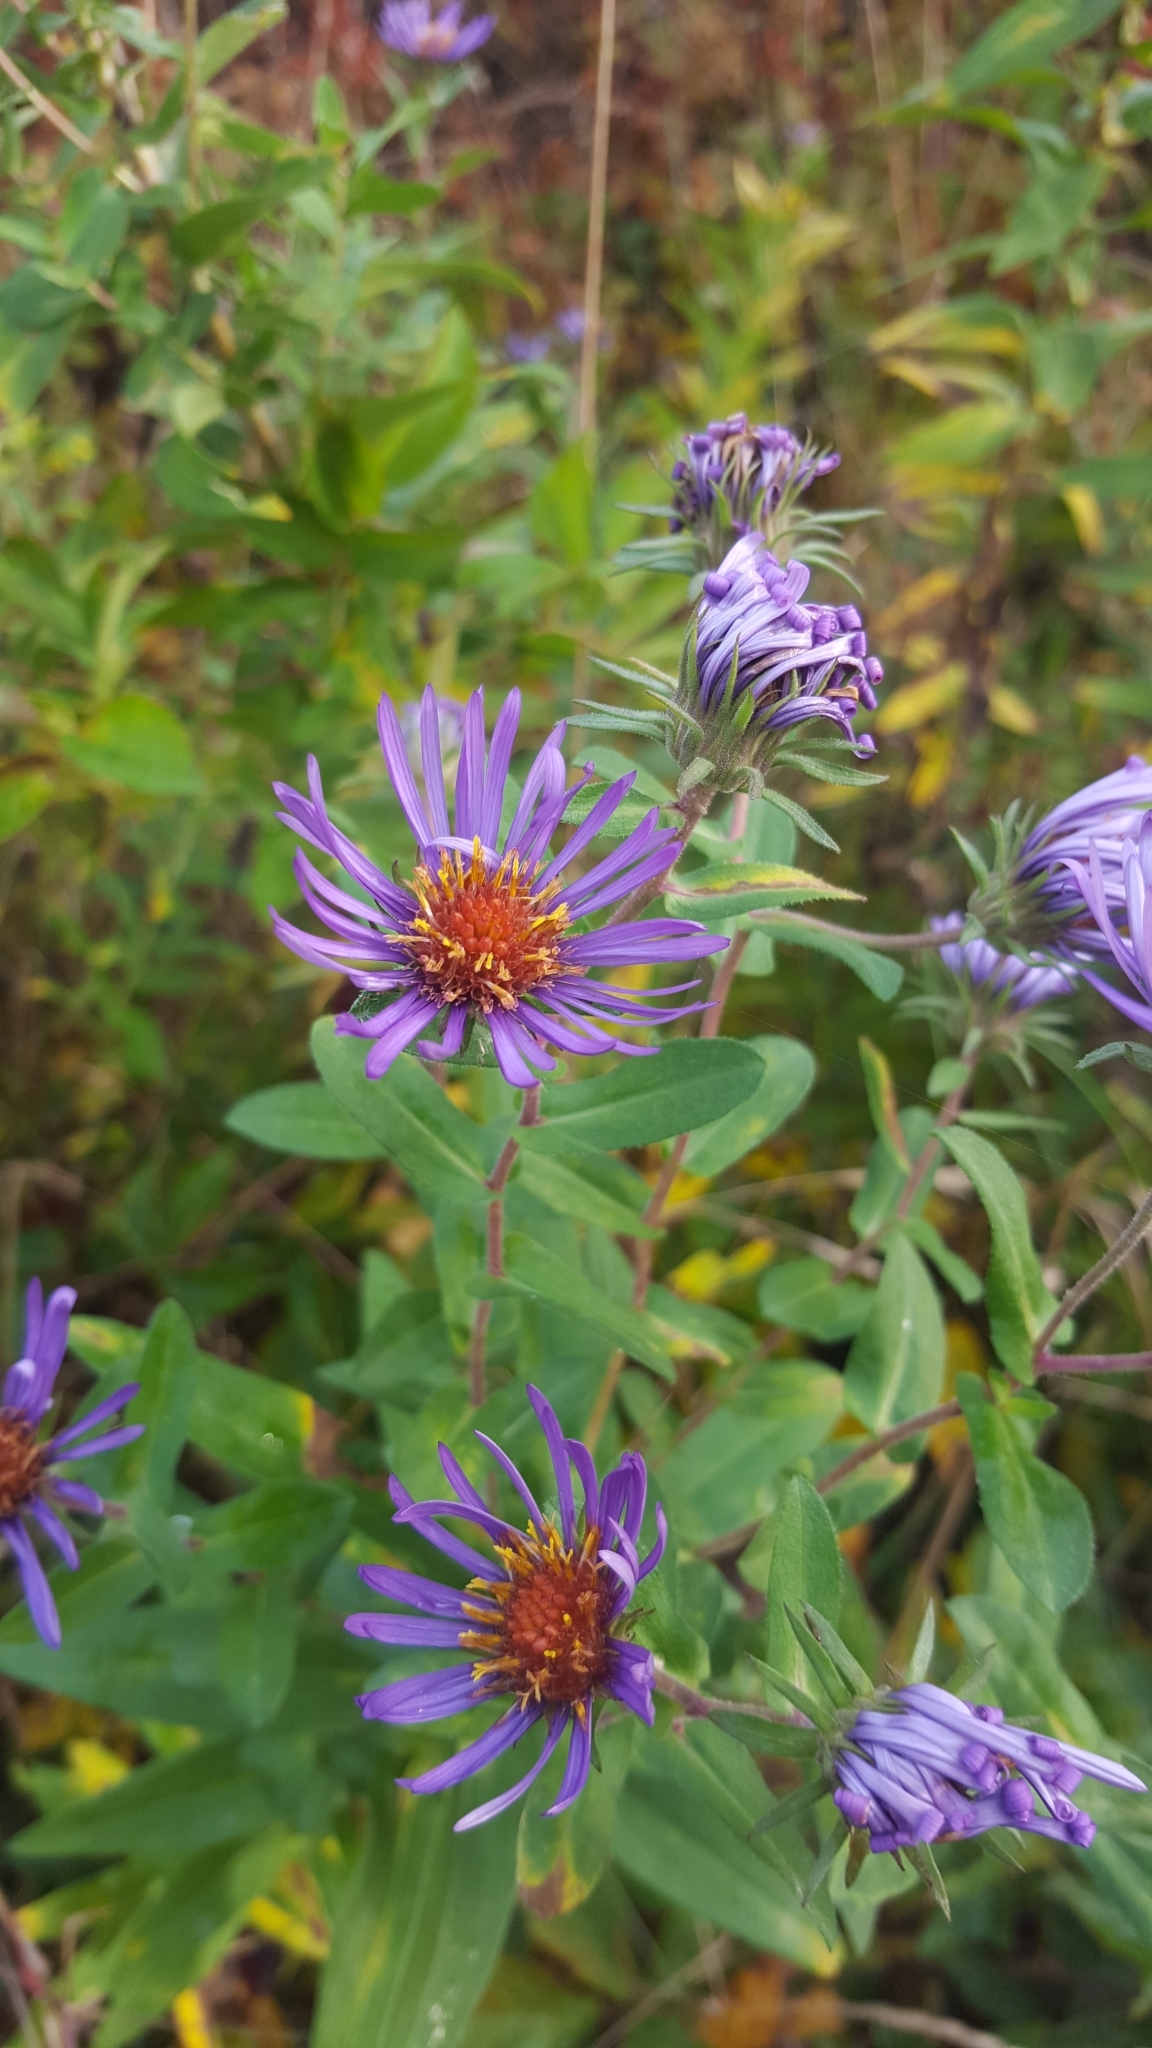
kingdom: Plantae
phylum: Tracheophyta
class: Magnoliopsida
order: Asterales
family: Asteraceae
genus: Symphyotrichum
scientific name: Symphyotrichum novae-angliae
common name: Michaelmas daisy
